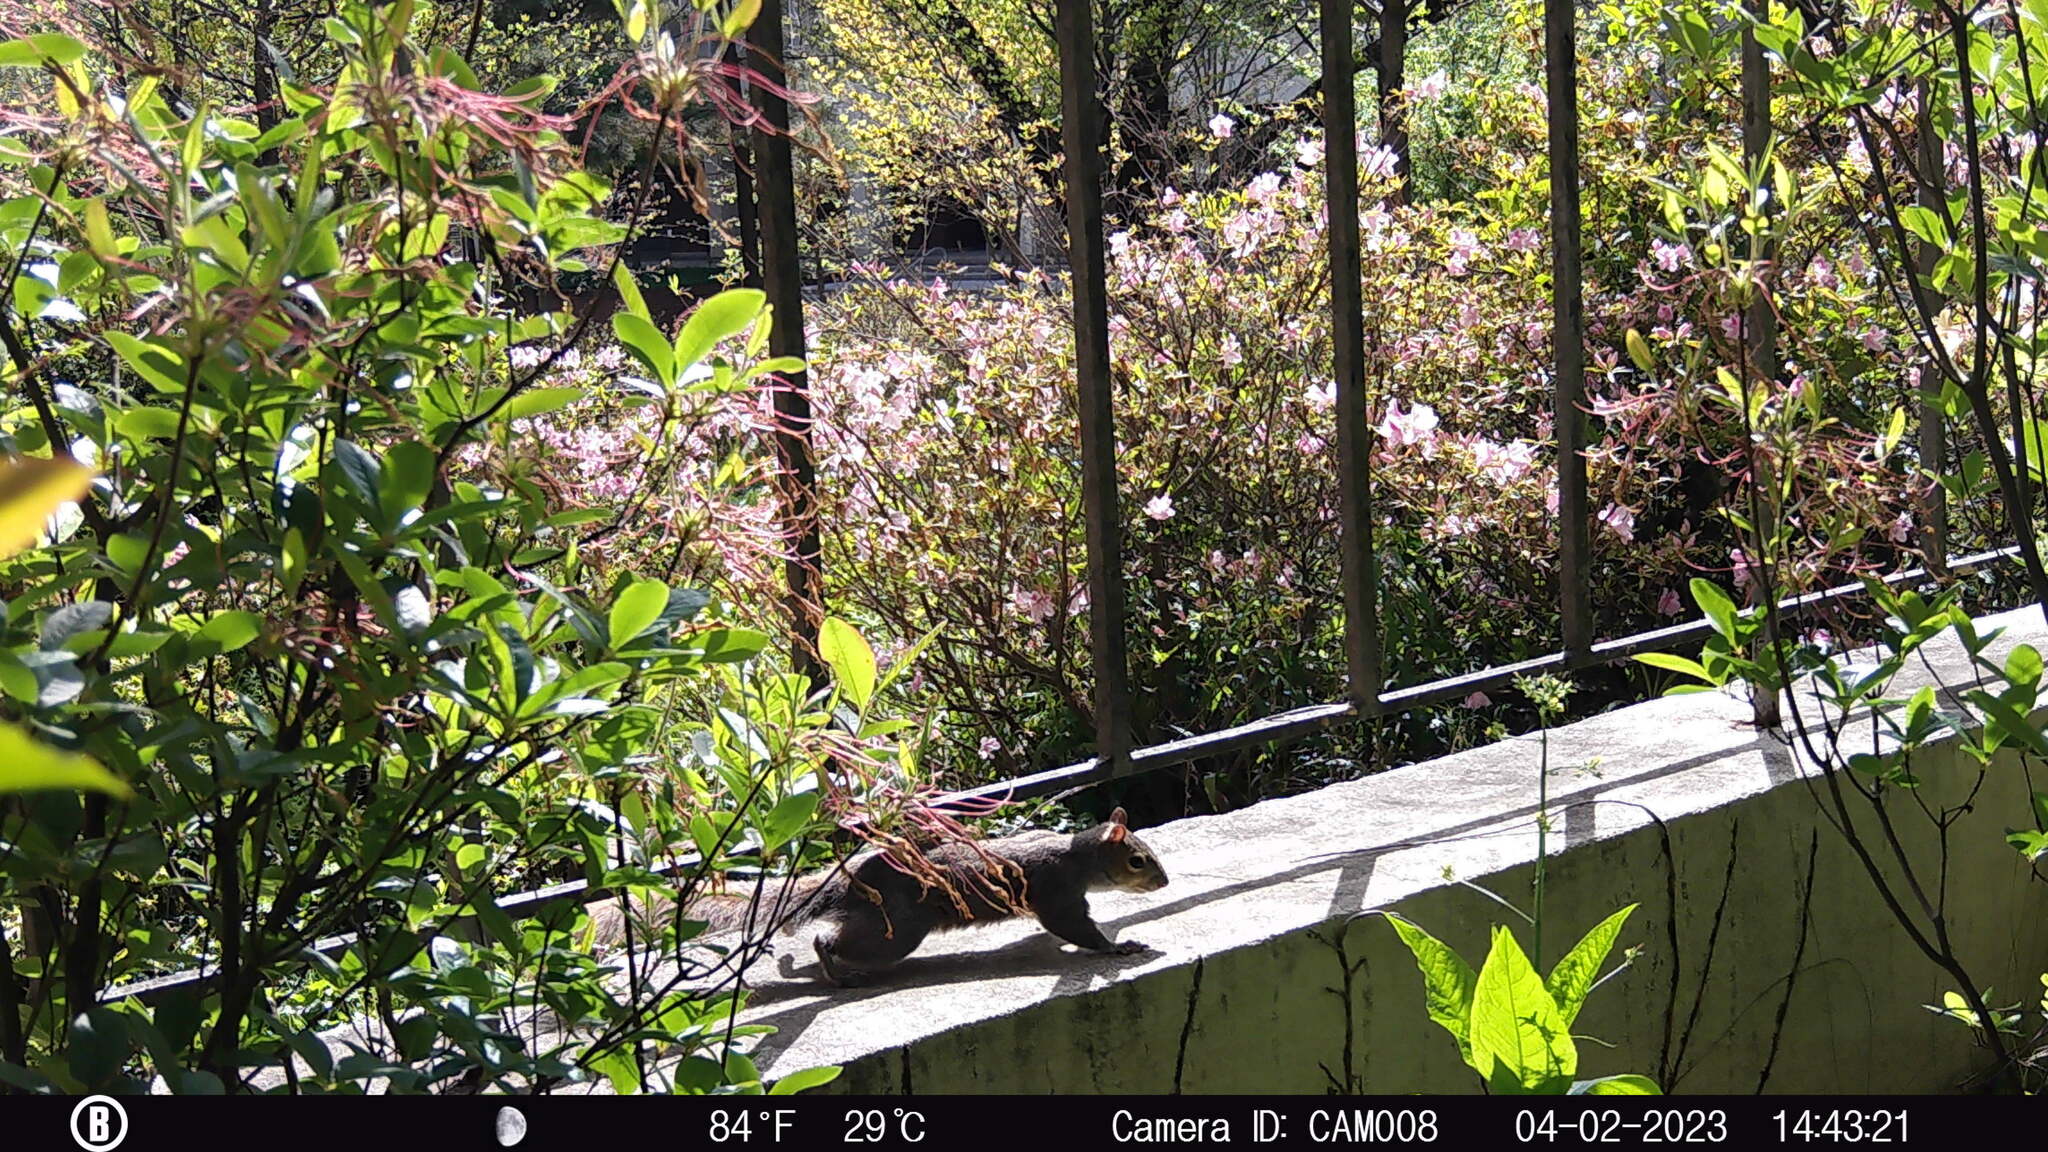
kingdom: Animalia
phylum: Chordata
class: Mammalia
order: Rodentia
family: Sciuridae
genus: Sciurus
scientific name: Sciurus carolinensis
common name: Eastern gray squirrel
